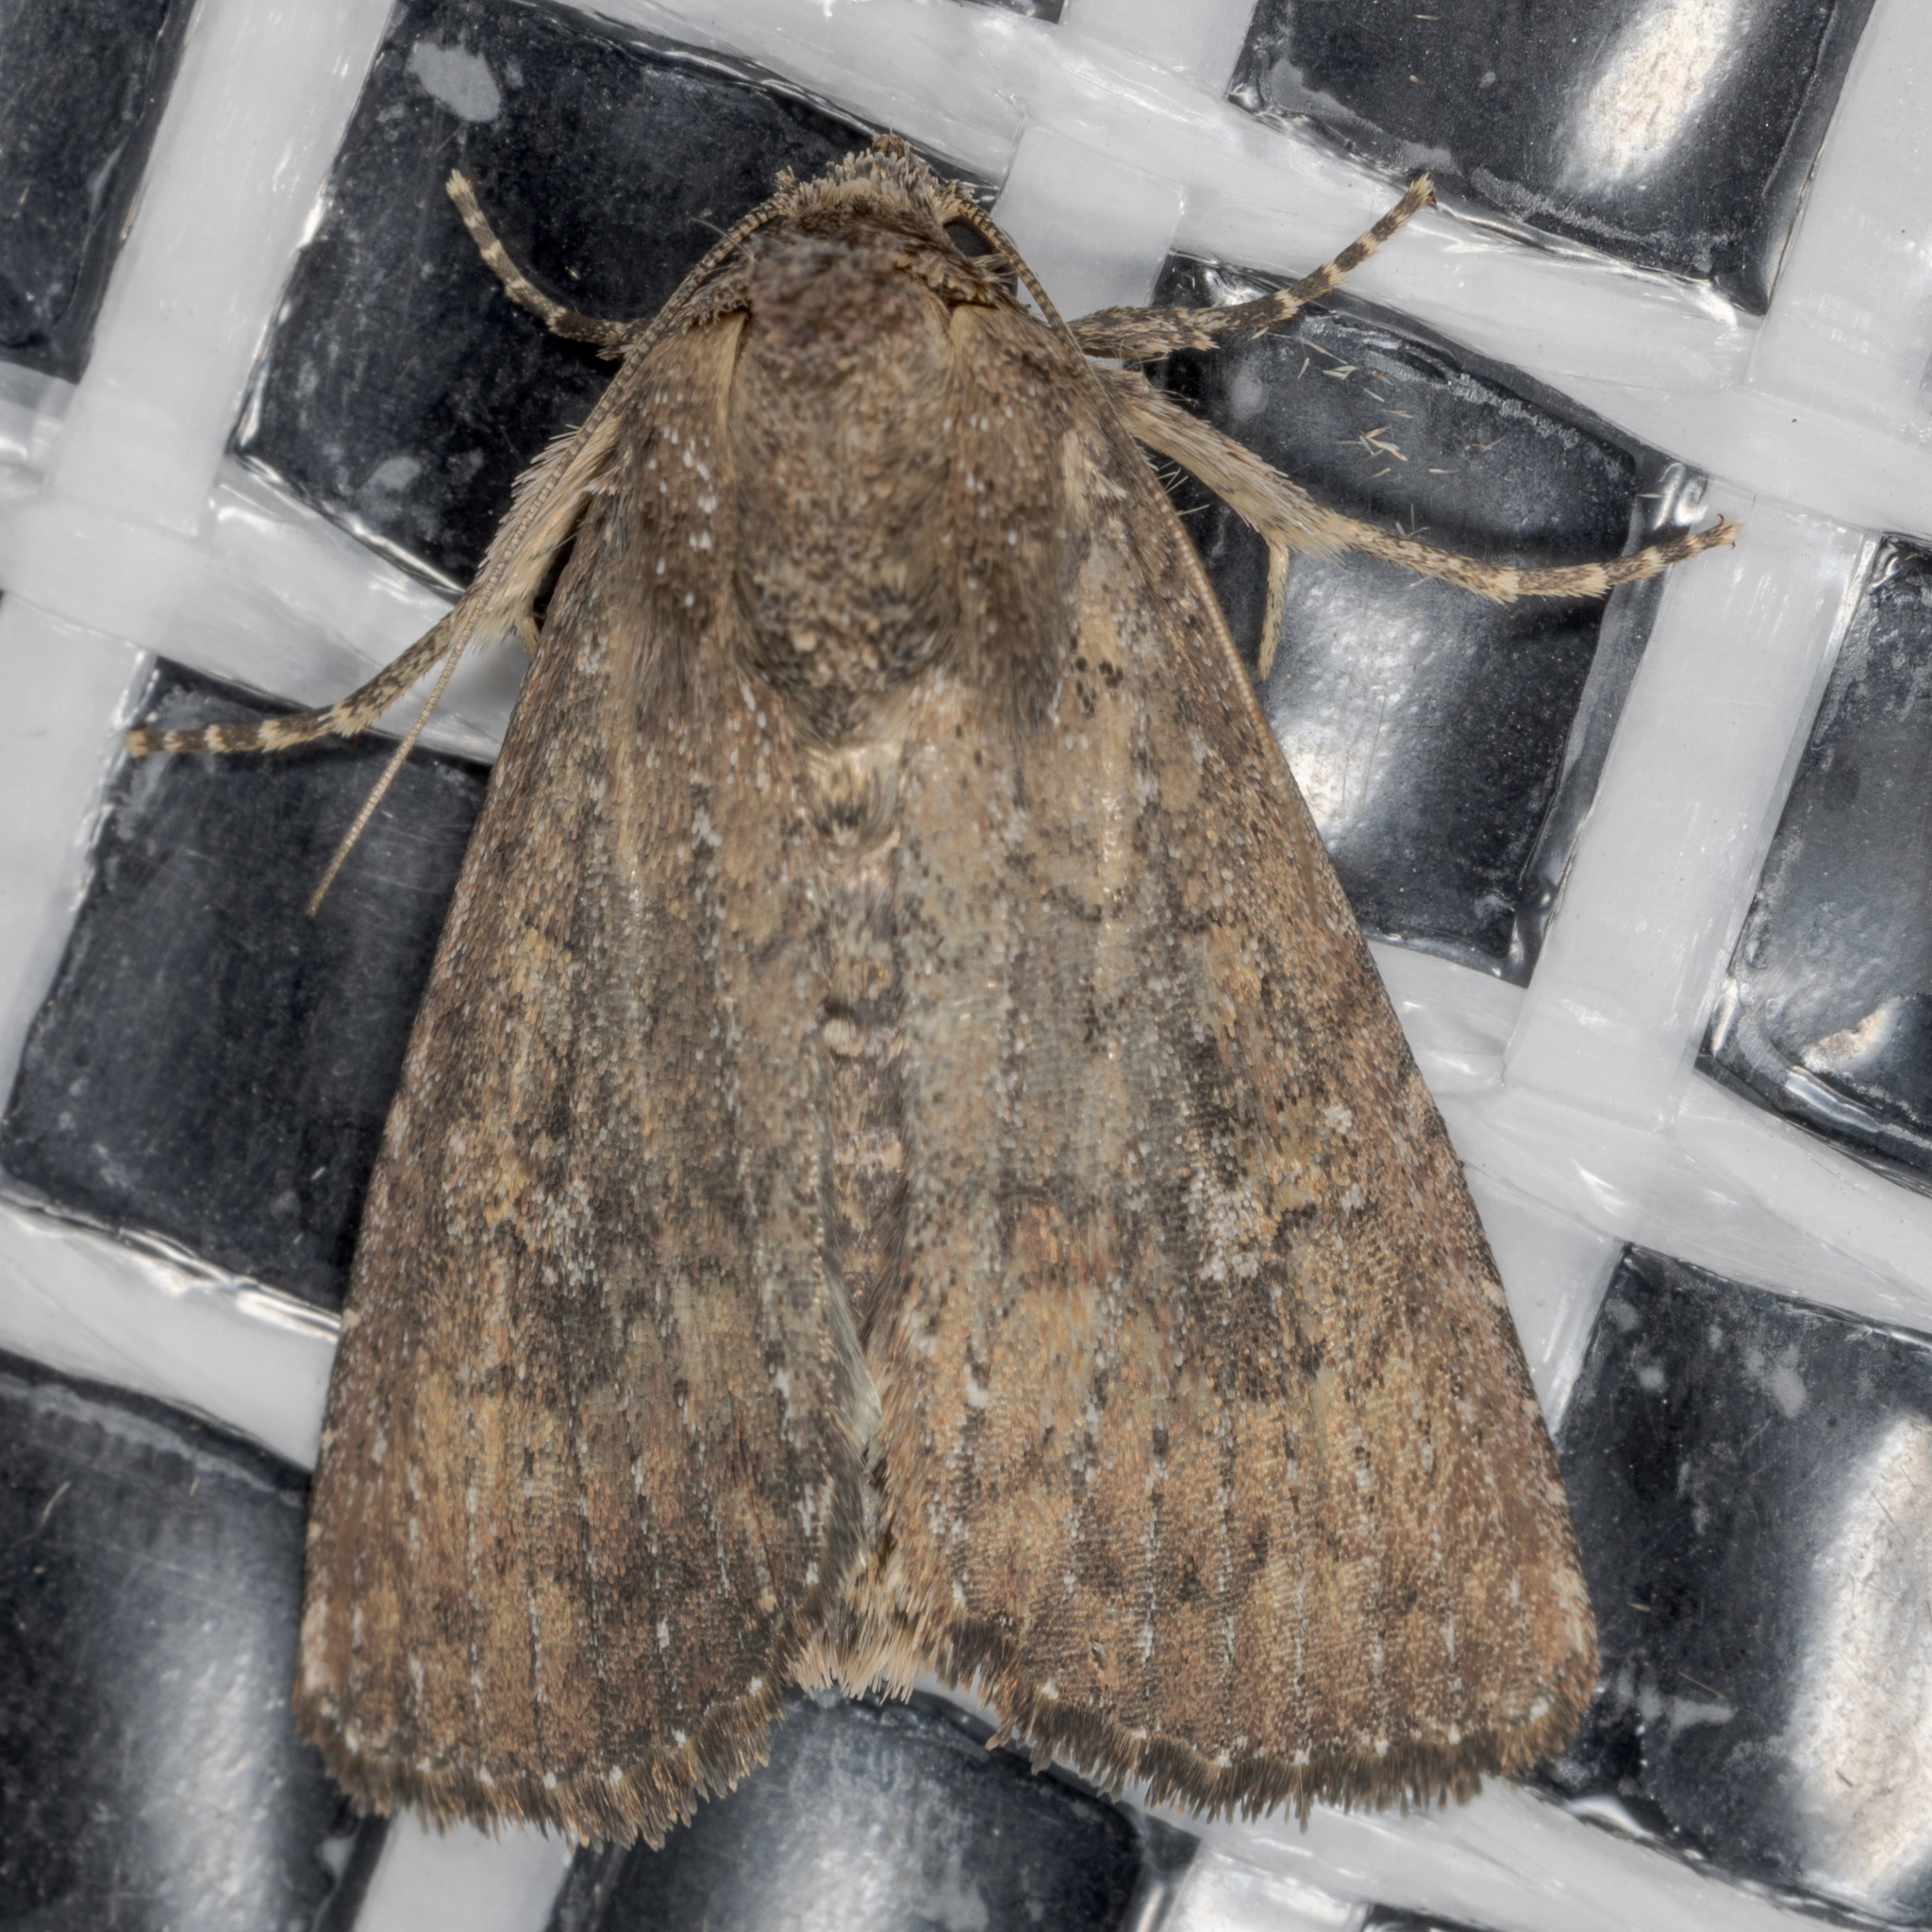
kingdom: Animalia
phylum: Arthropoda
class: Insecta
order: Lepidoptera
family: Noctuidae
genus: Condica
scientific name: Condica sutor
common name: Cobbler moth
